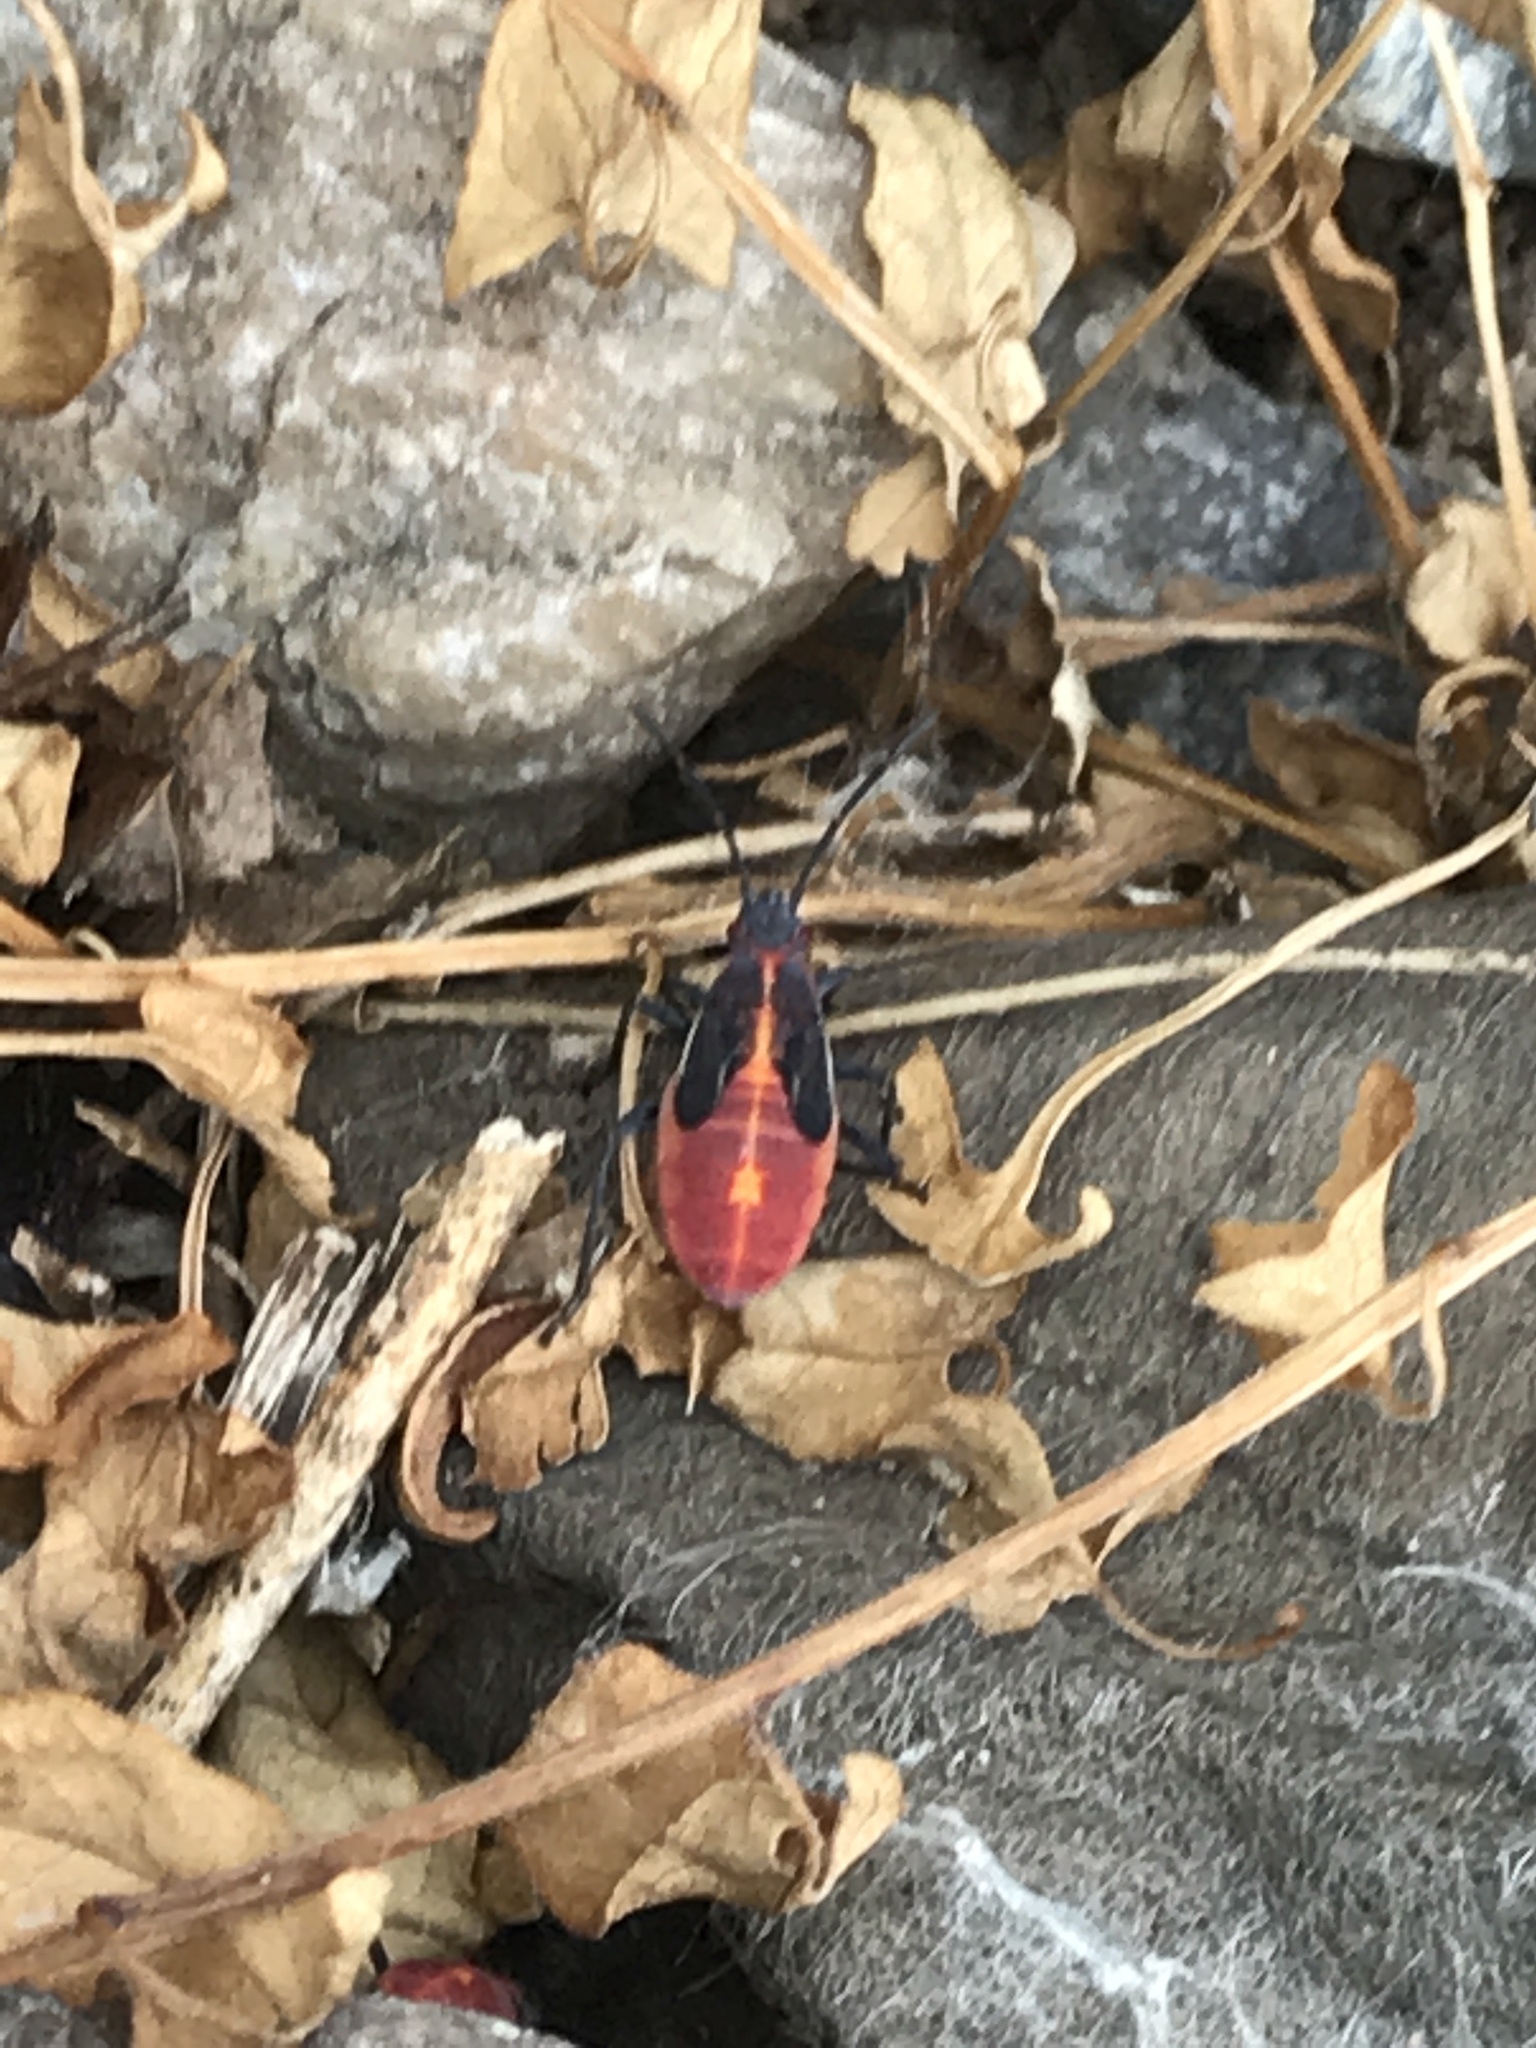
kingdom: Animalia
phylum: Arthropoda
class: Insecta
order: Hemiptera
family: Rhopalidae
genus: Boisea
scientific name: Boisea trivittata
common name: Boxelder bug
